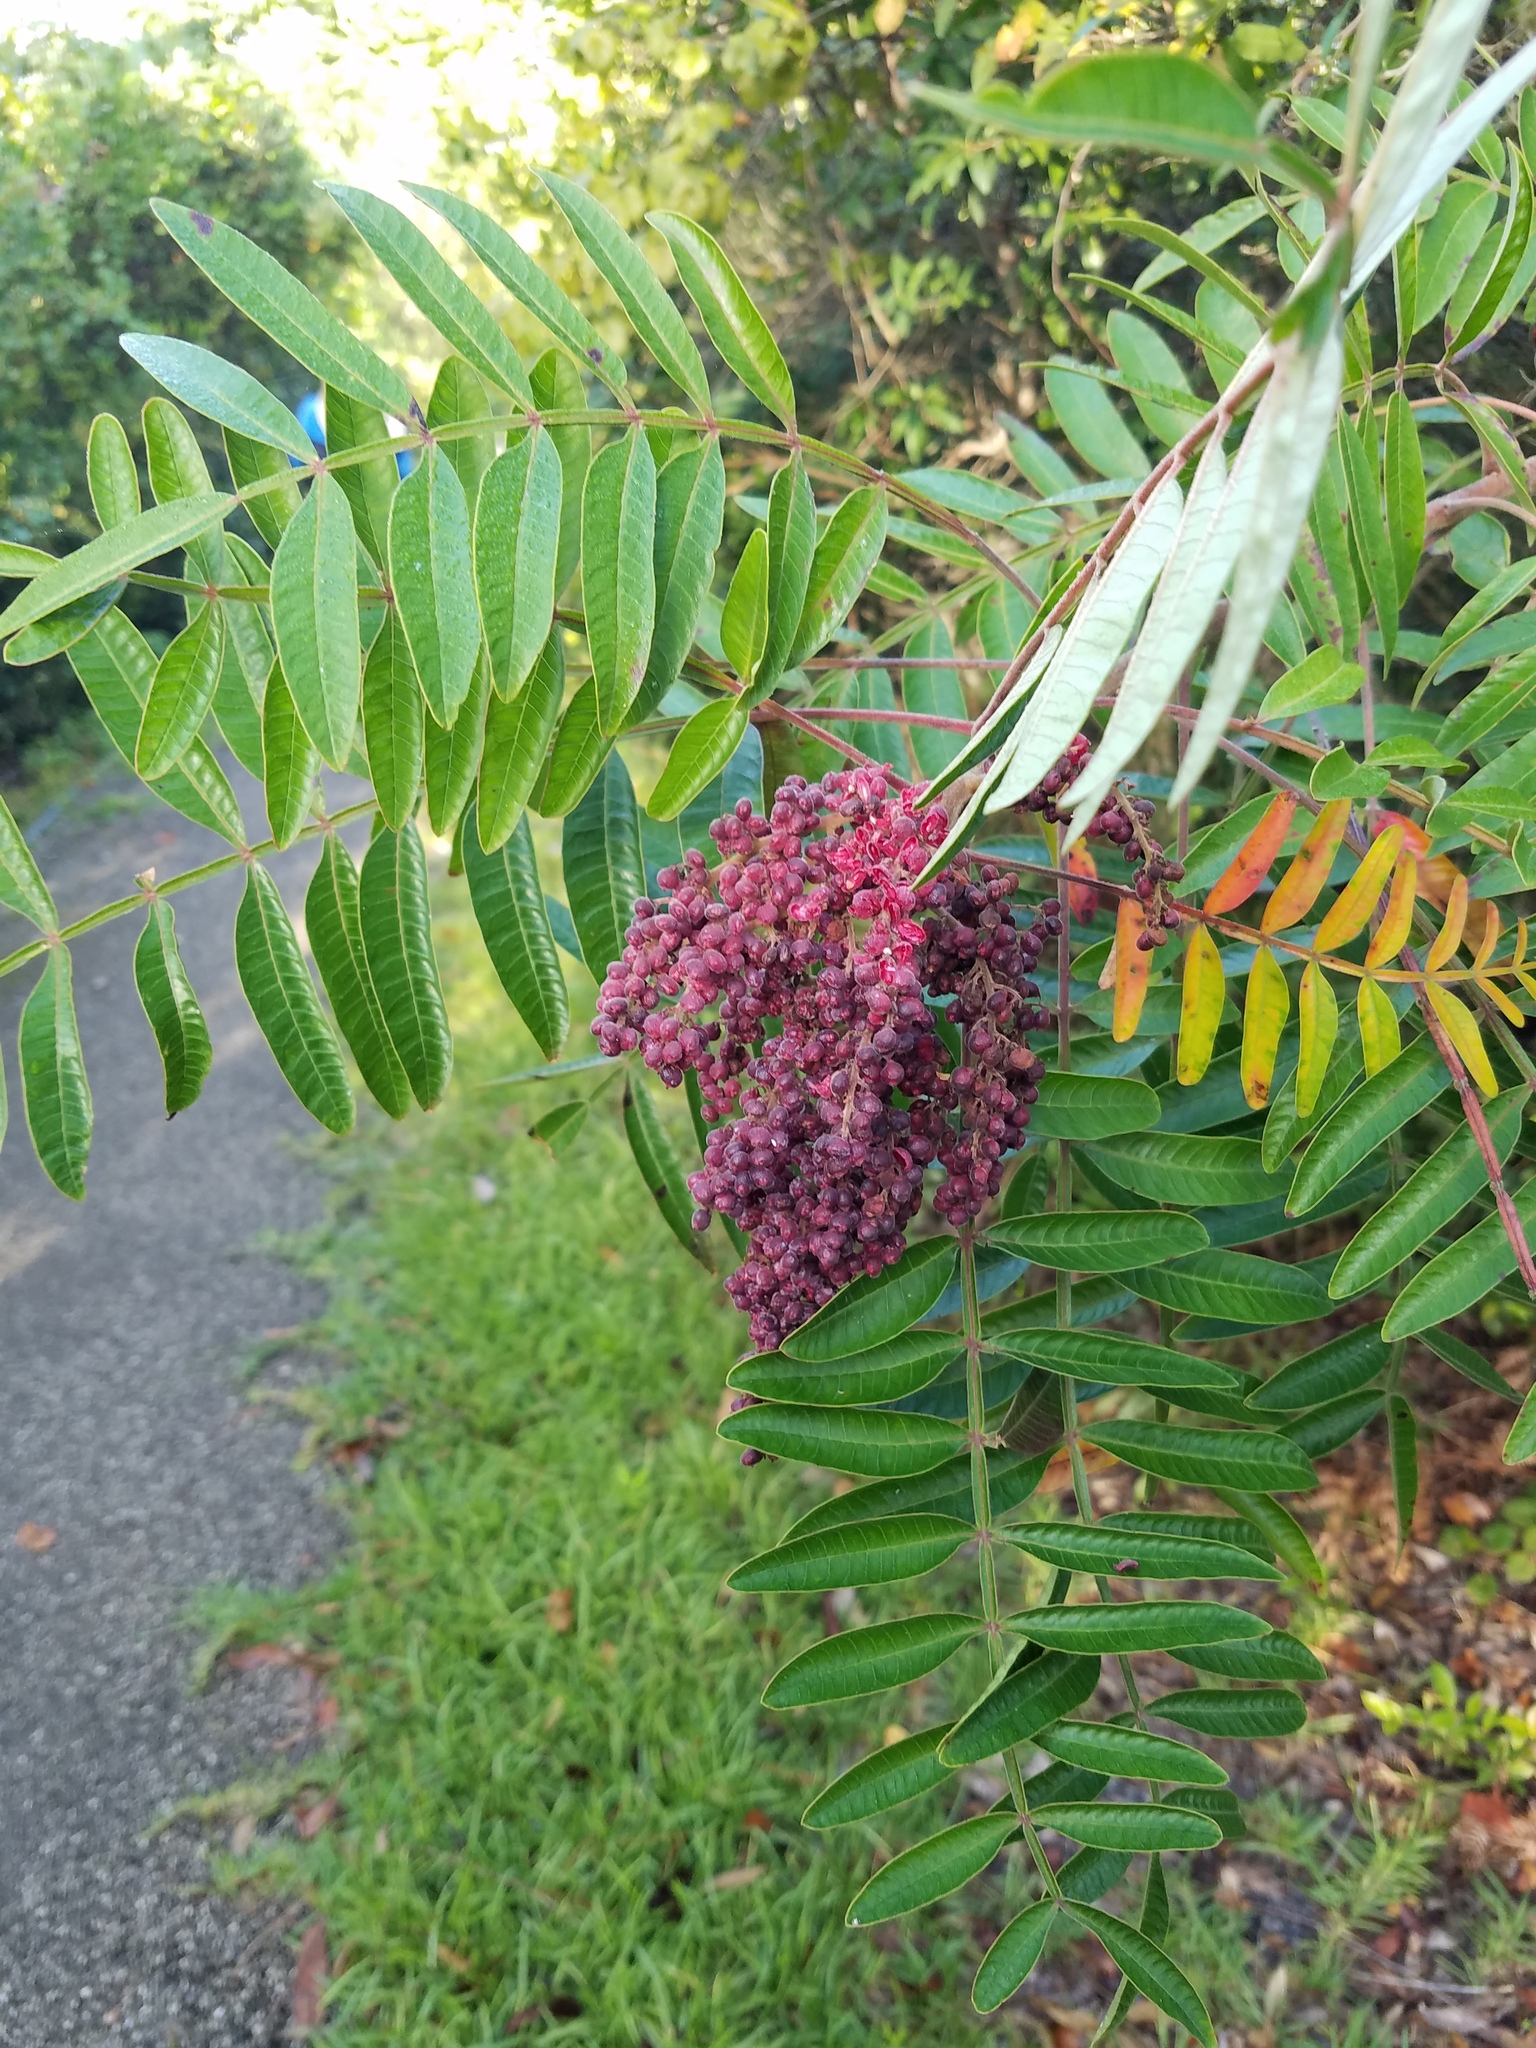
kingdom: Plantae
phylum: Tracheophyta
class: Magnoliopsida
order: Sapindales
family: Anacardiaceae
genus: Rhus
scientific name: Rhus copallina
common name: Shining sumac
